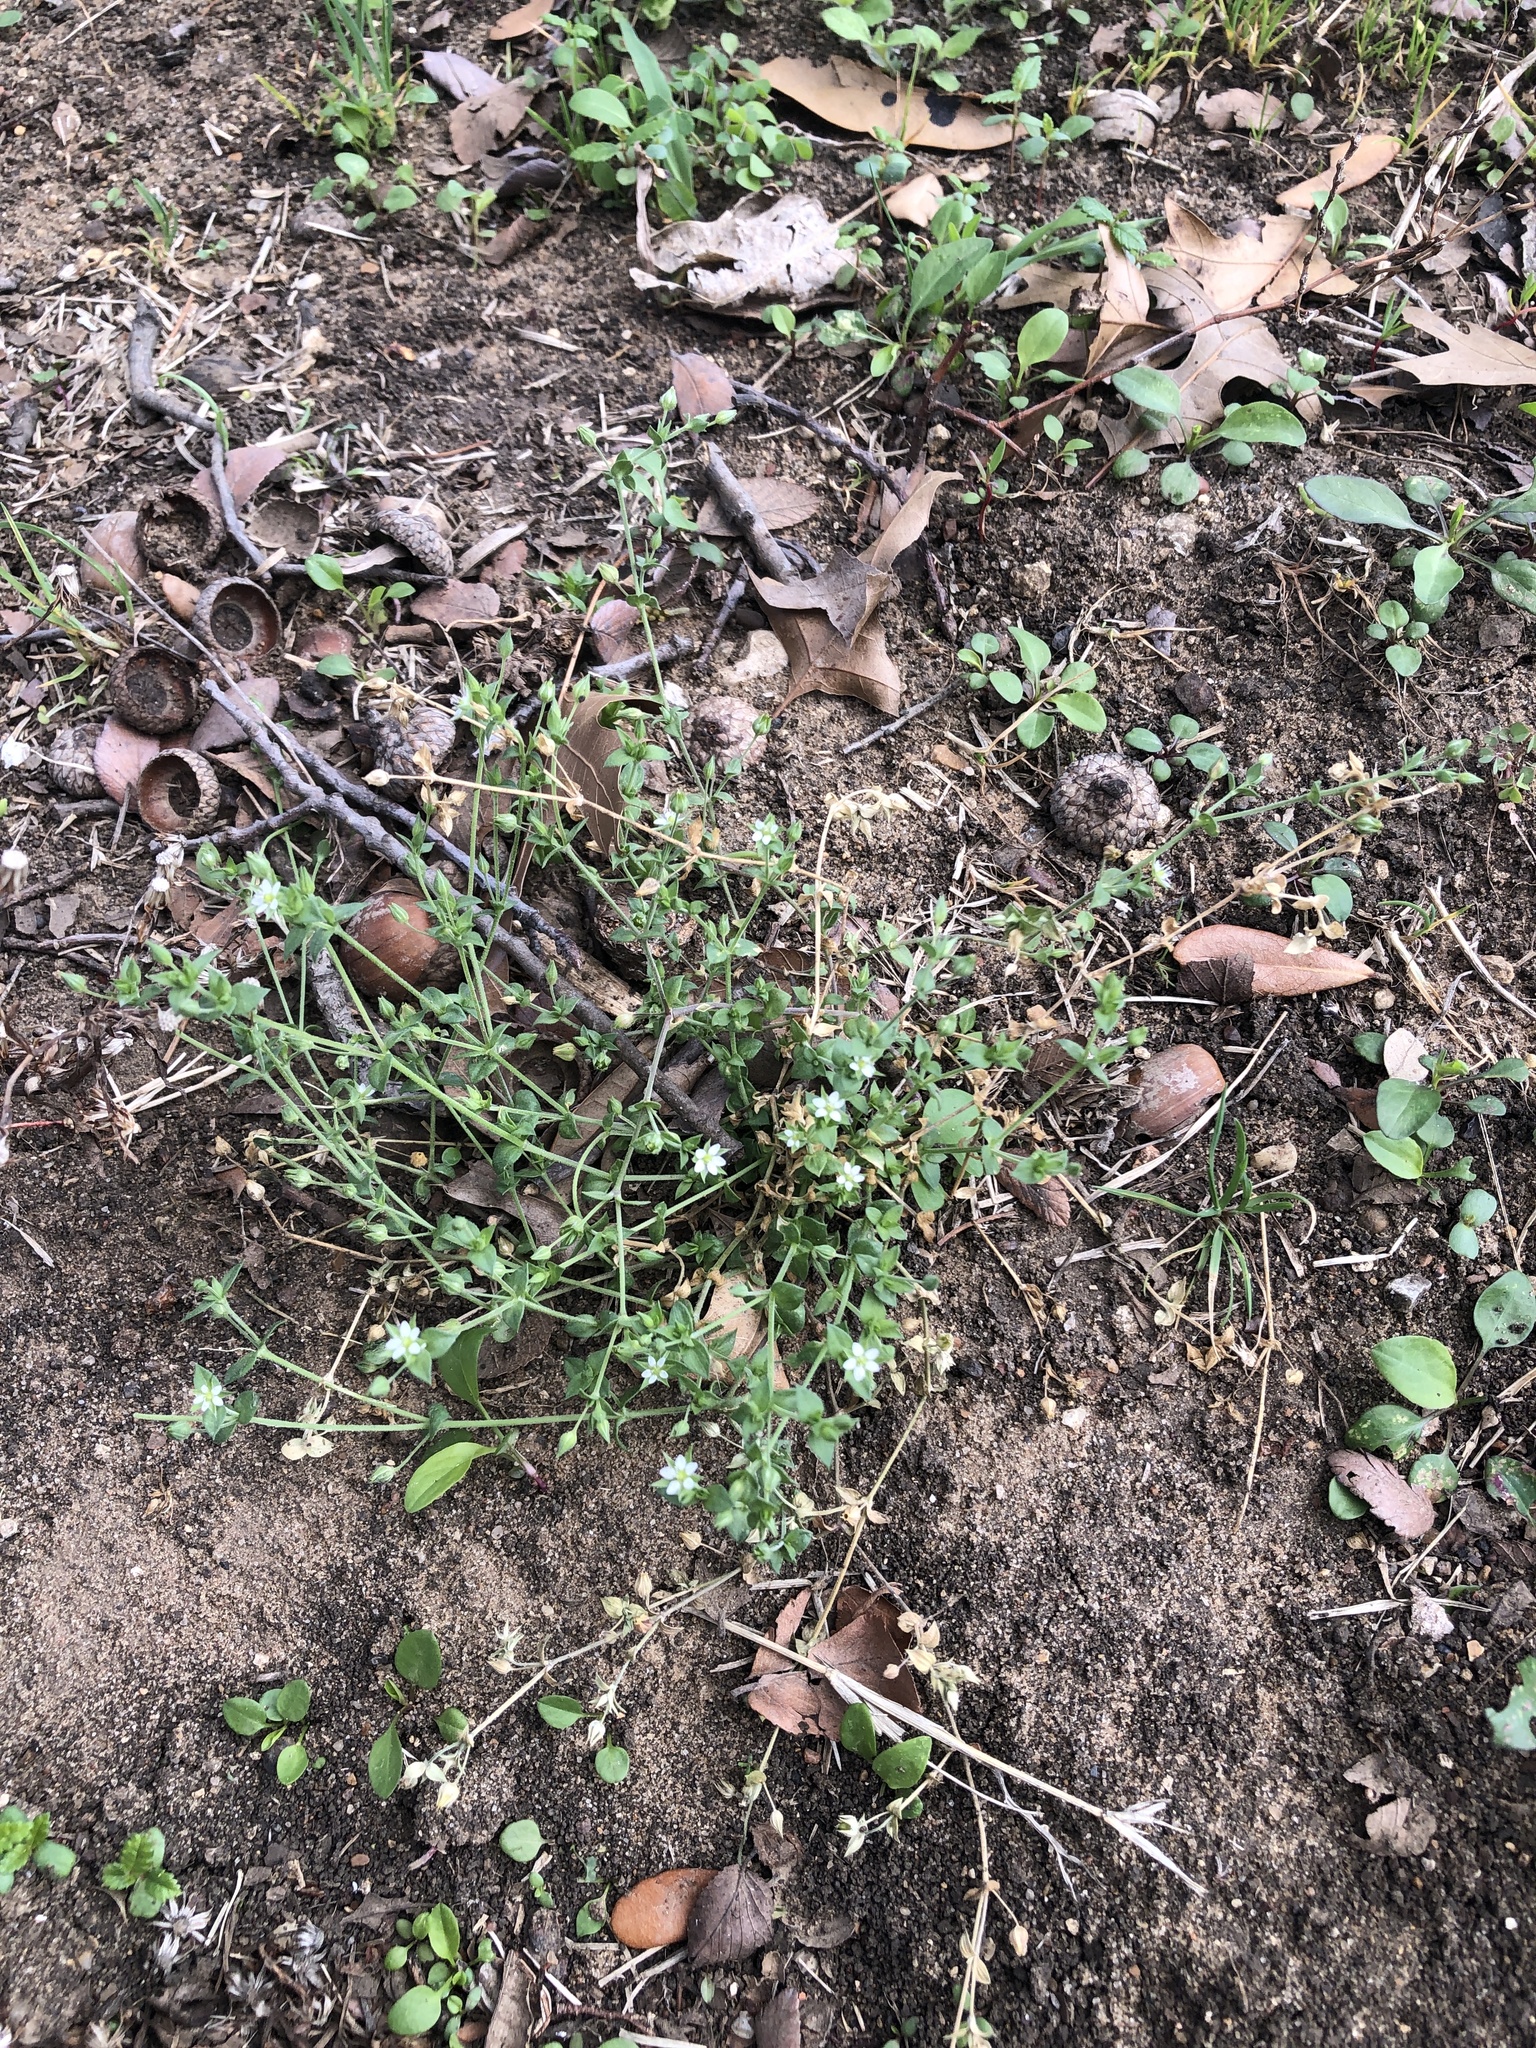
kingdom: Plantae
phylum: Tracheophyta
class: Magnoliopsida
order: Caryophyllales
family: Caryophyllaceae
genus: Arenaria
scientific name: Arenaria serpyllifolia
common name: Thyme-leaved sandwort
